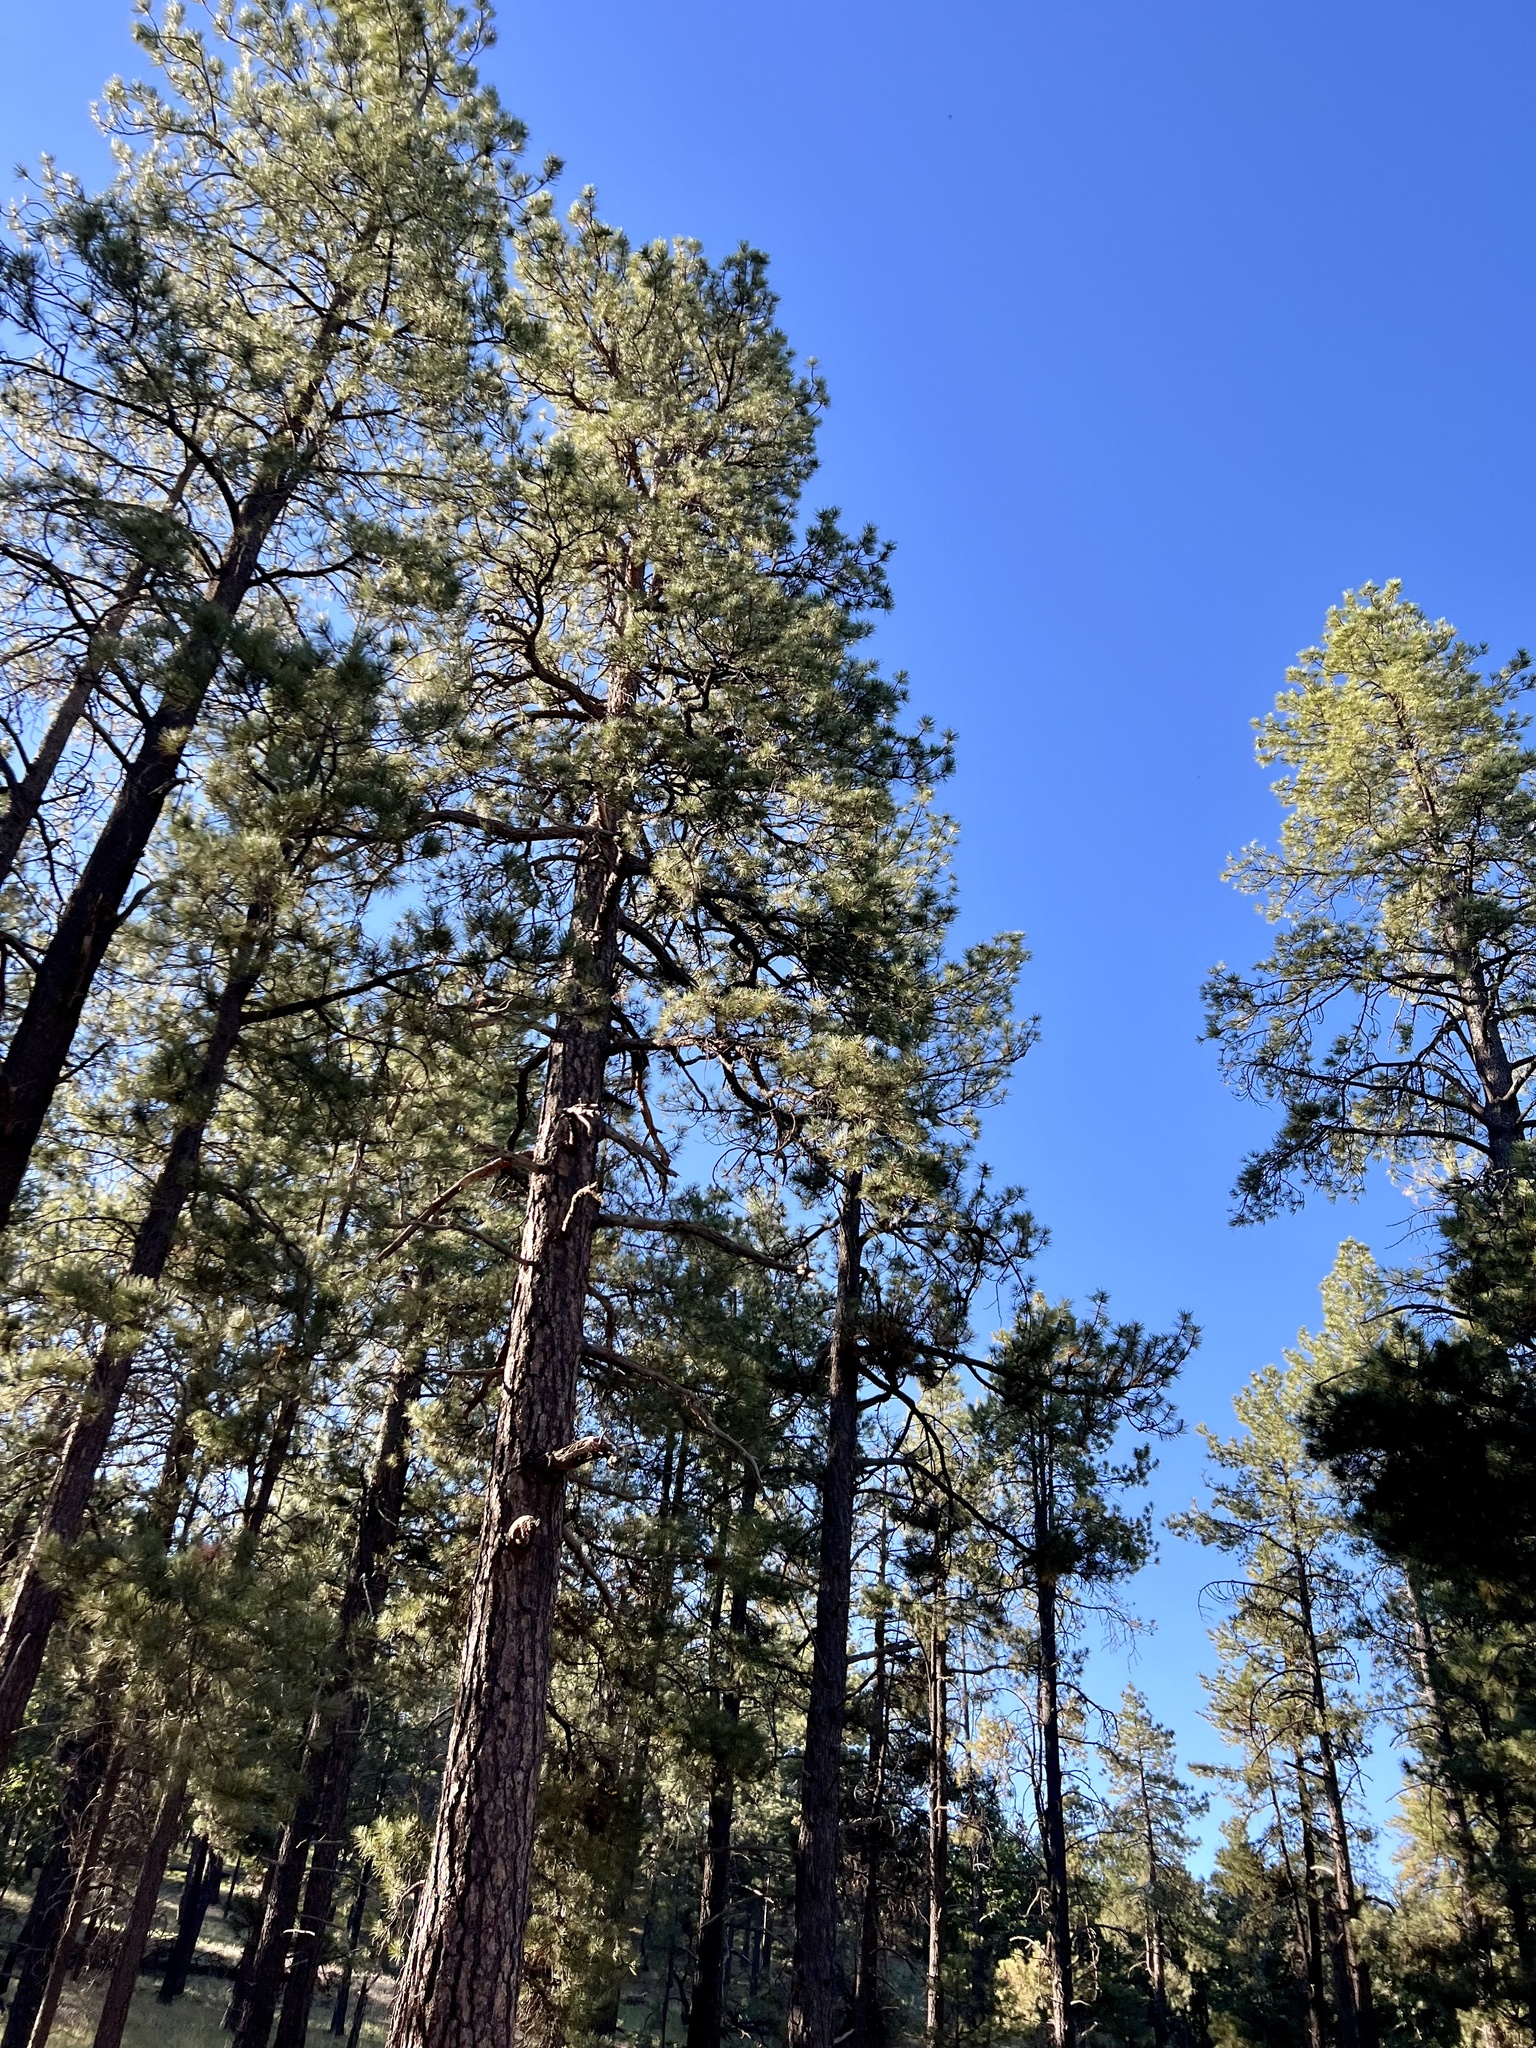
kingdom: Plantae
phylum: Tracheophyta
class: Pinopsida
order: Pinales
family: Pinaceae
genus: Pinus
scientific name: Pinus ponderosa
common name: Western yellow-pine
